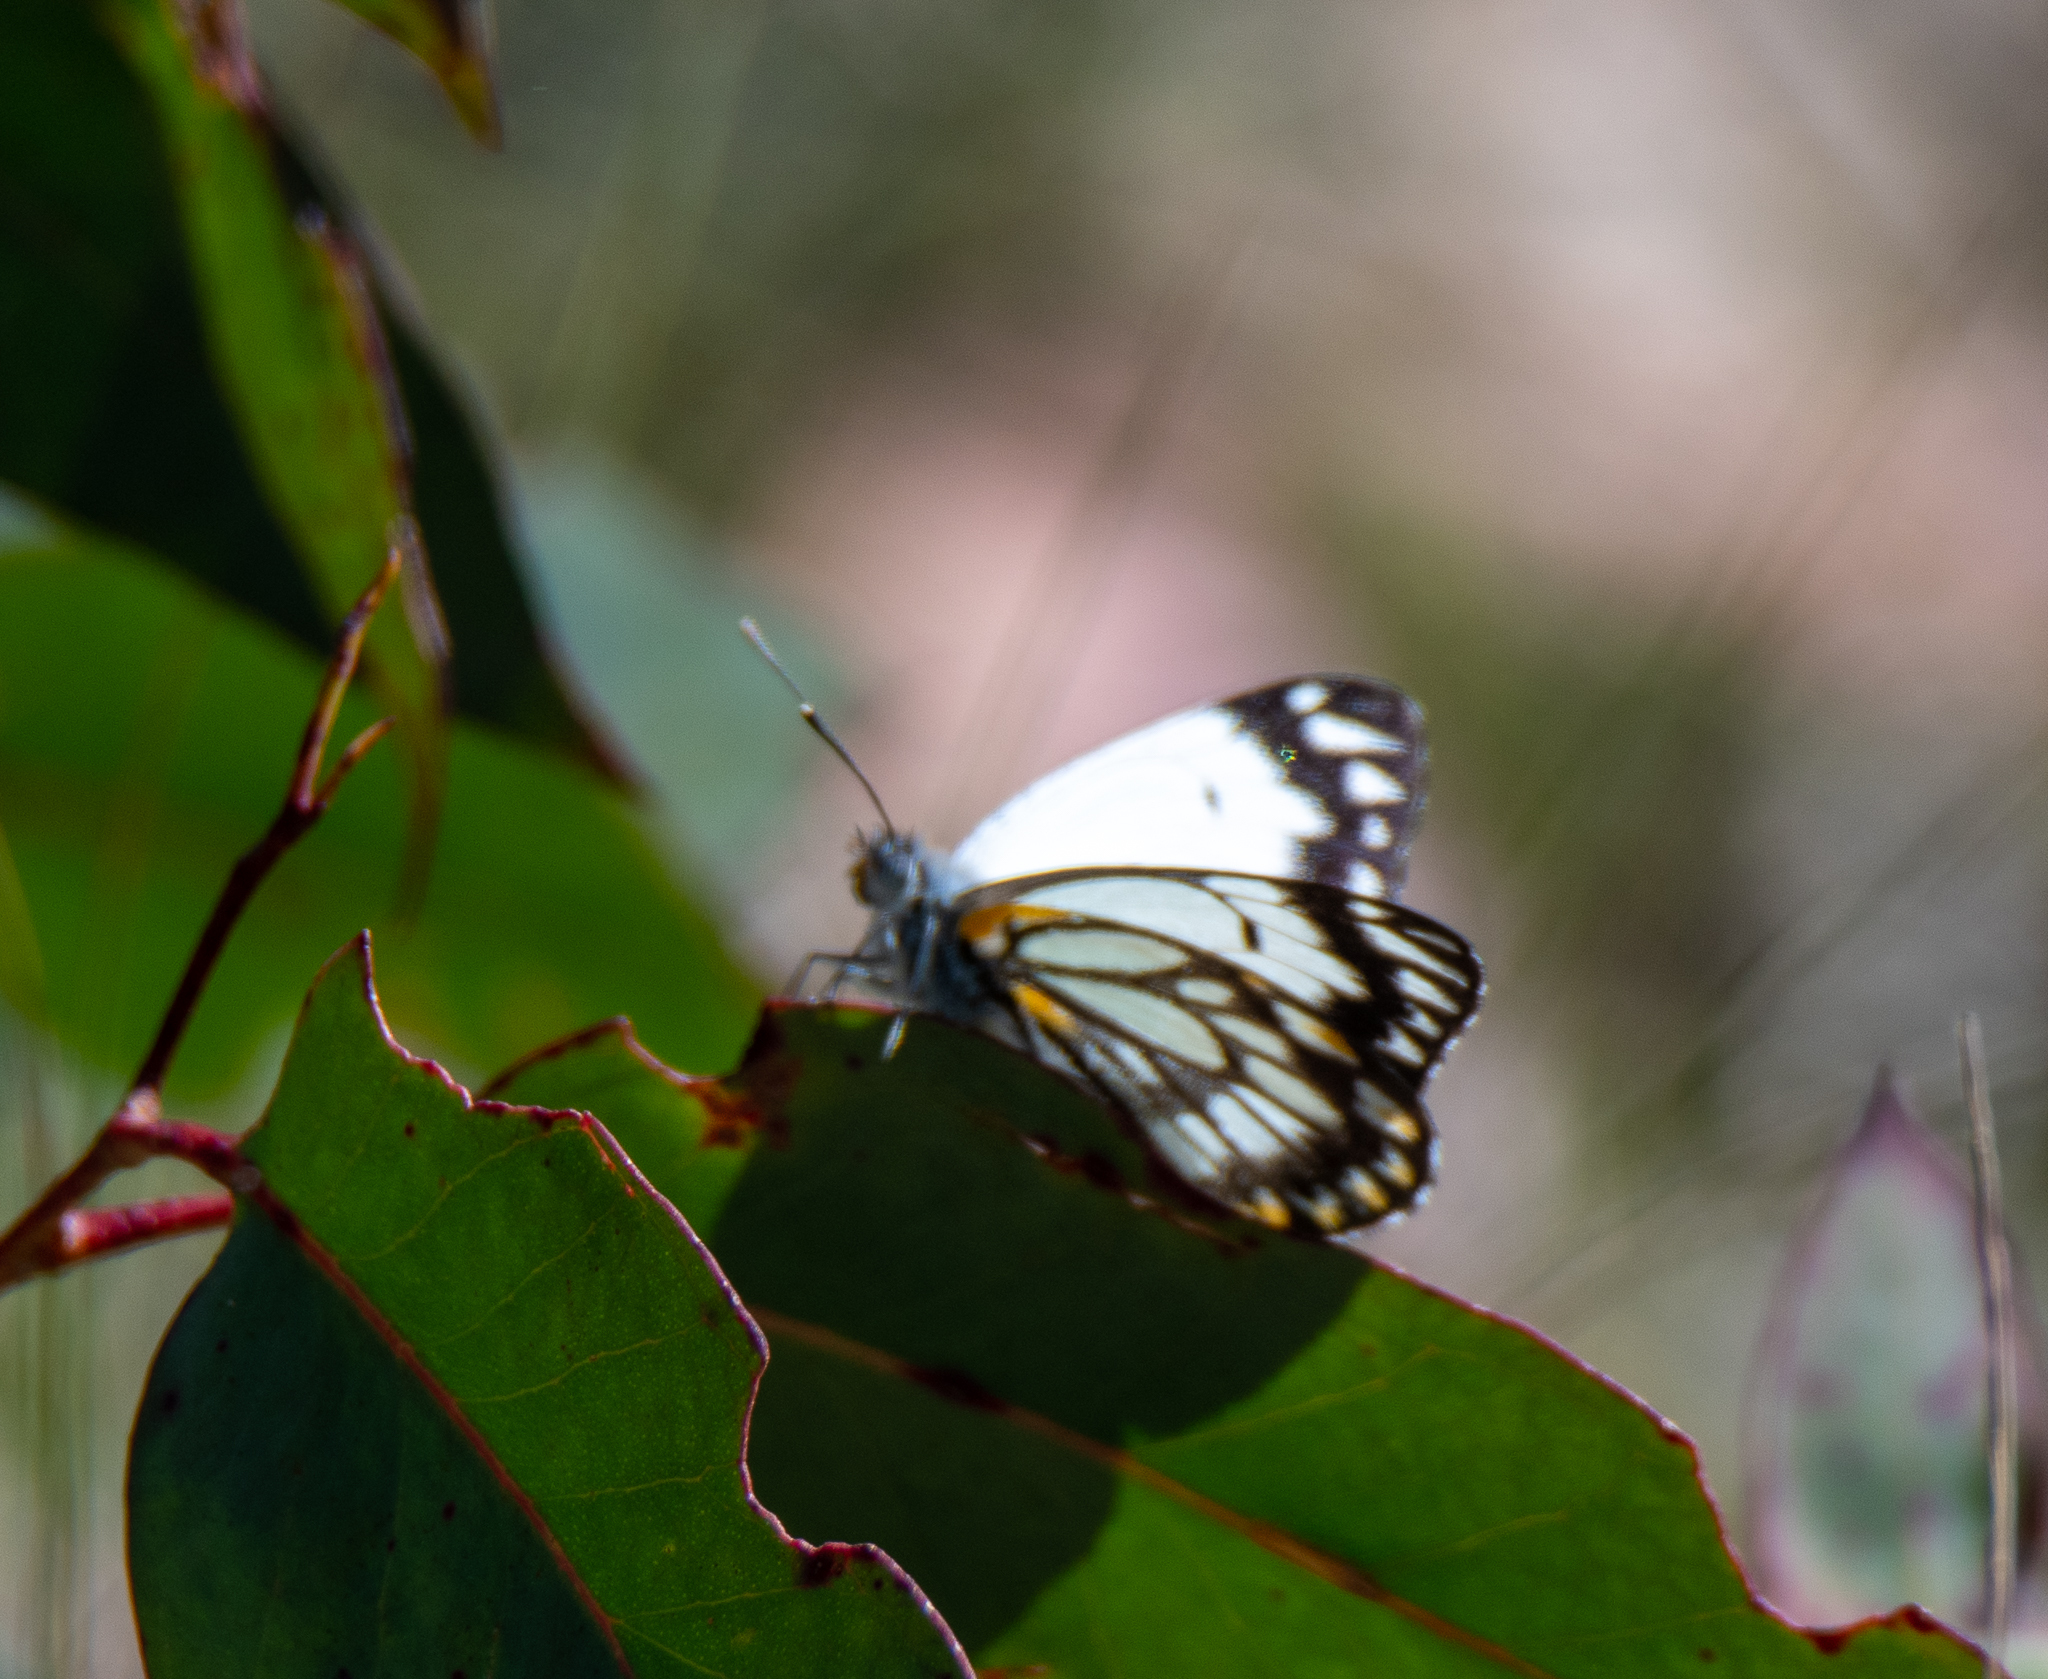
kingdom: Animalia
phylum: Arthropoda
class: Insecta
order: Lepidoptera
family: Pieridae
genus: Belenois
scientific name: Belenois java
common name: Caper white
